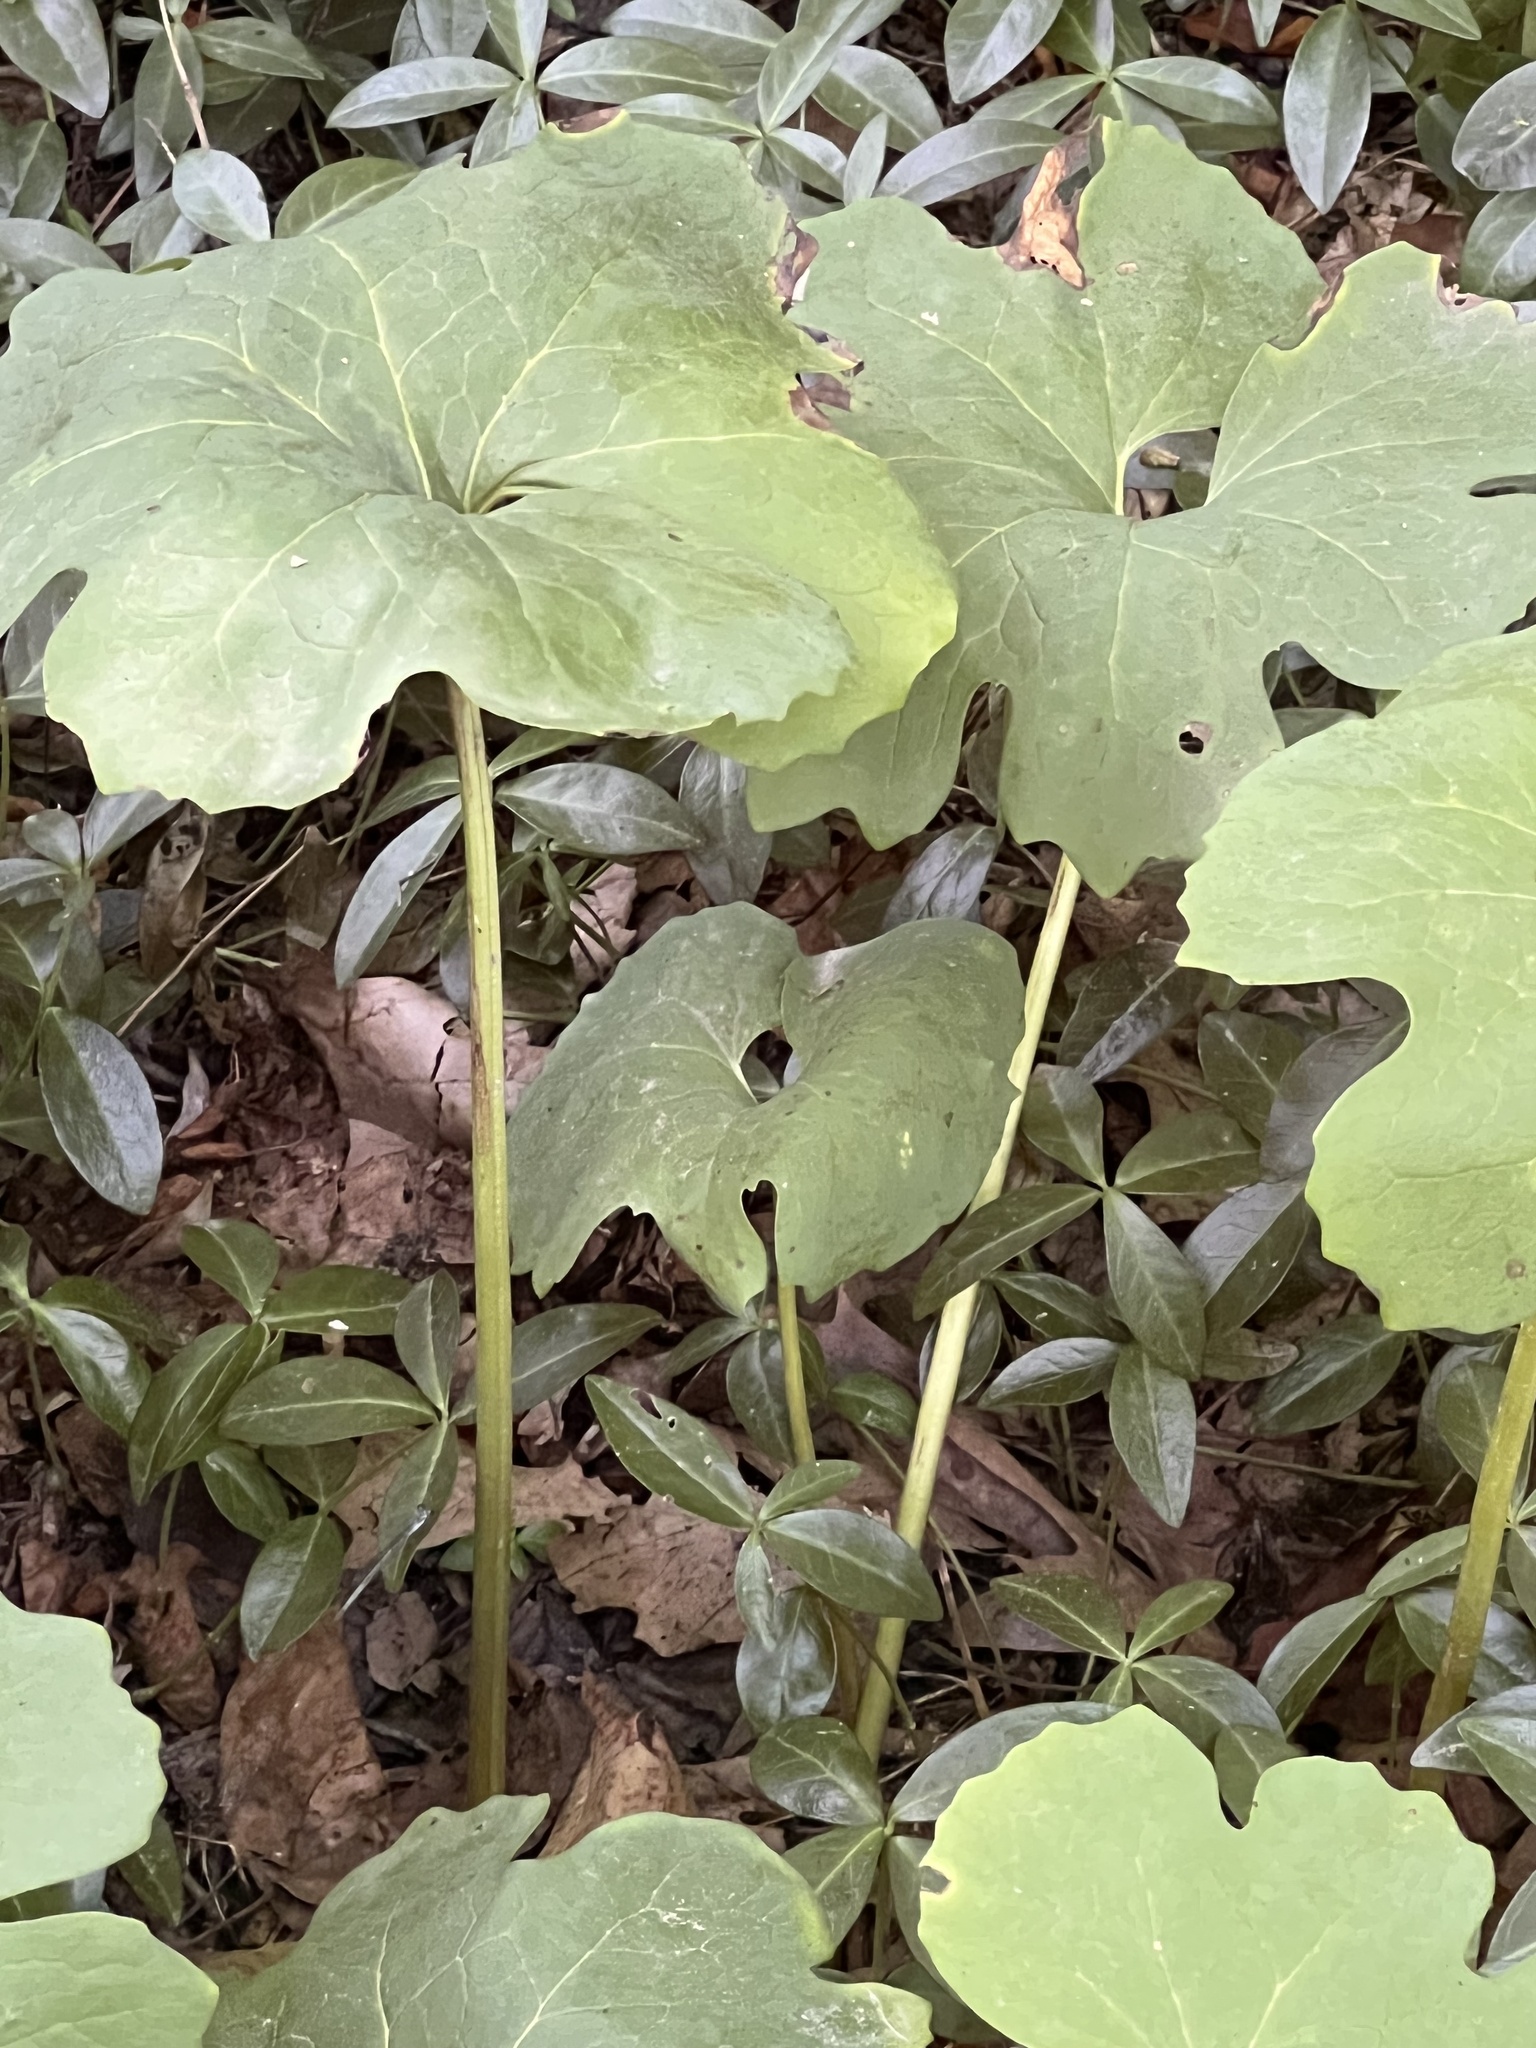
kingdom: Plantae
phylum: Tracheophyta
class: Magnoliopsida
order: Ranunculales
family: Papaveraceae
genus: Sanguinaria
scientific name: Sanguinaria canadensis
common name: Bloodroot
